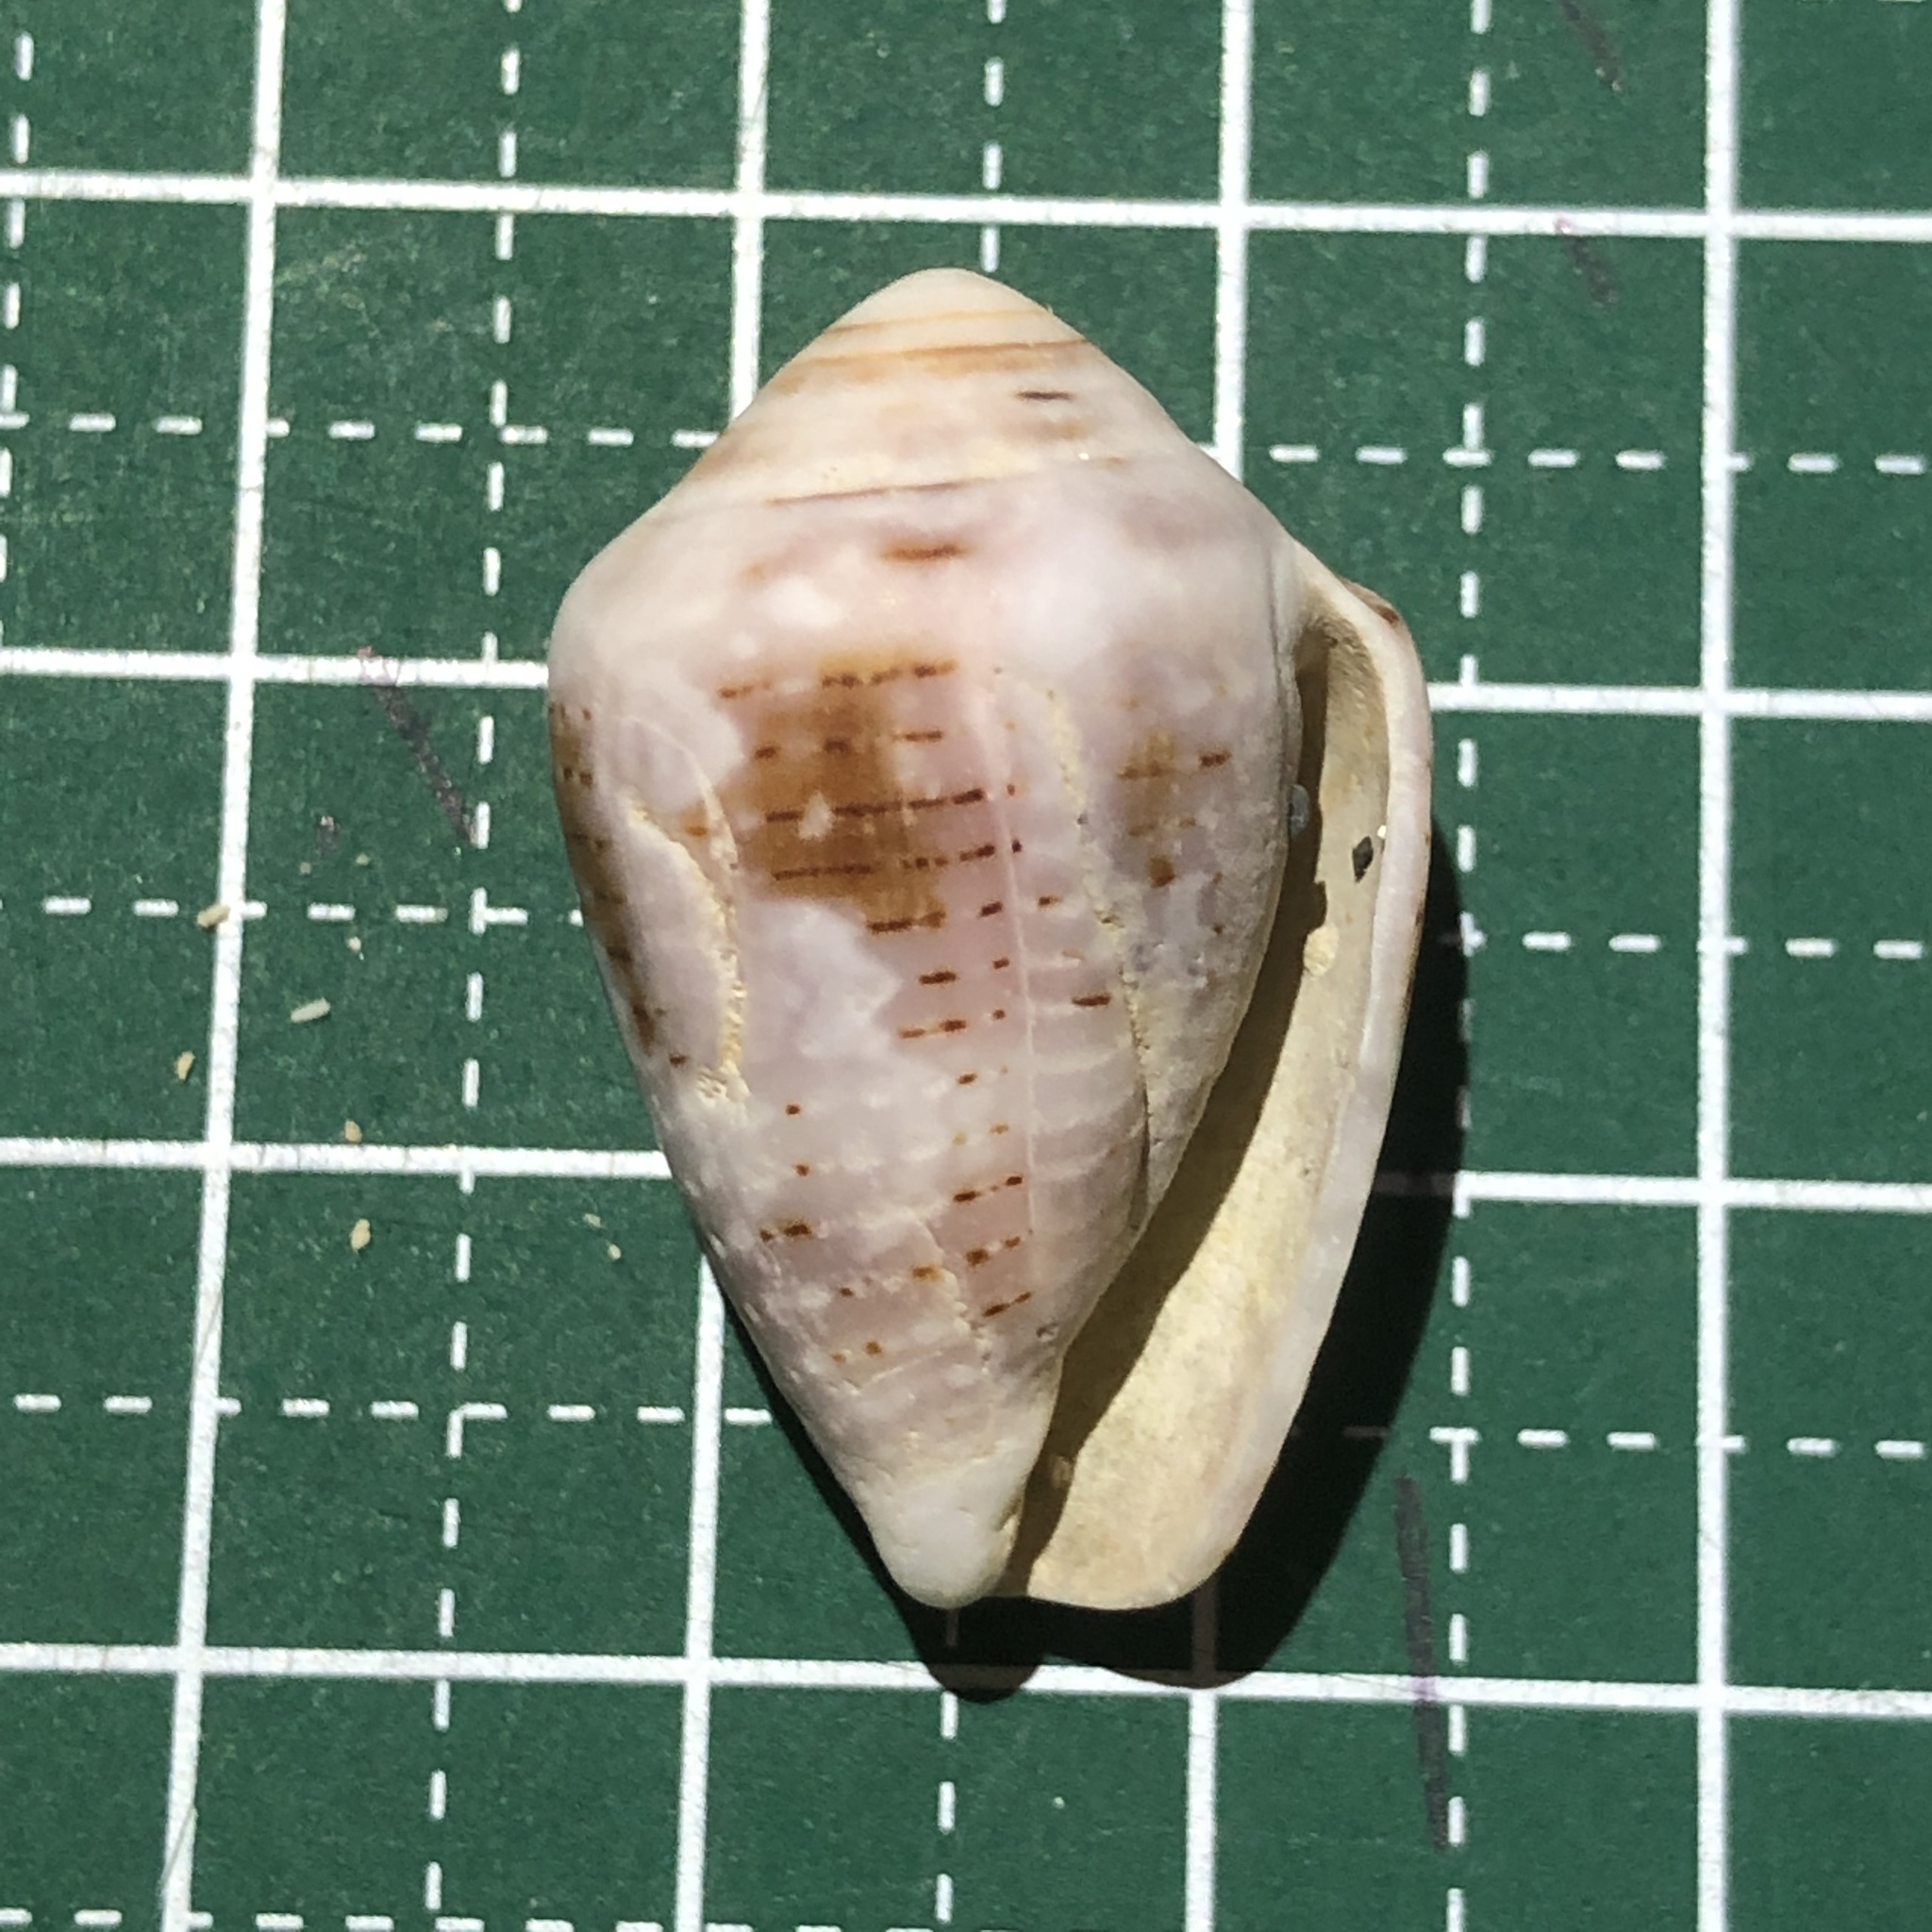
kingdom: Animalia
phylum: Mollusca
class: Gastropoda
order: Neogastropoda
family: Conidae
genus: Conus
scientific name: Conus coronatus
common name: Coronated cone
